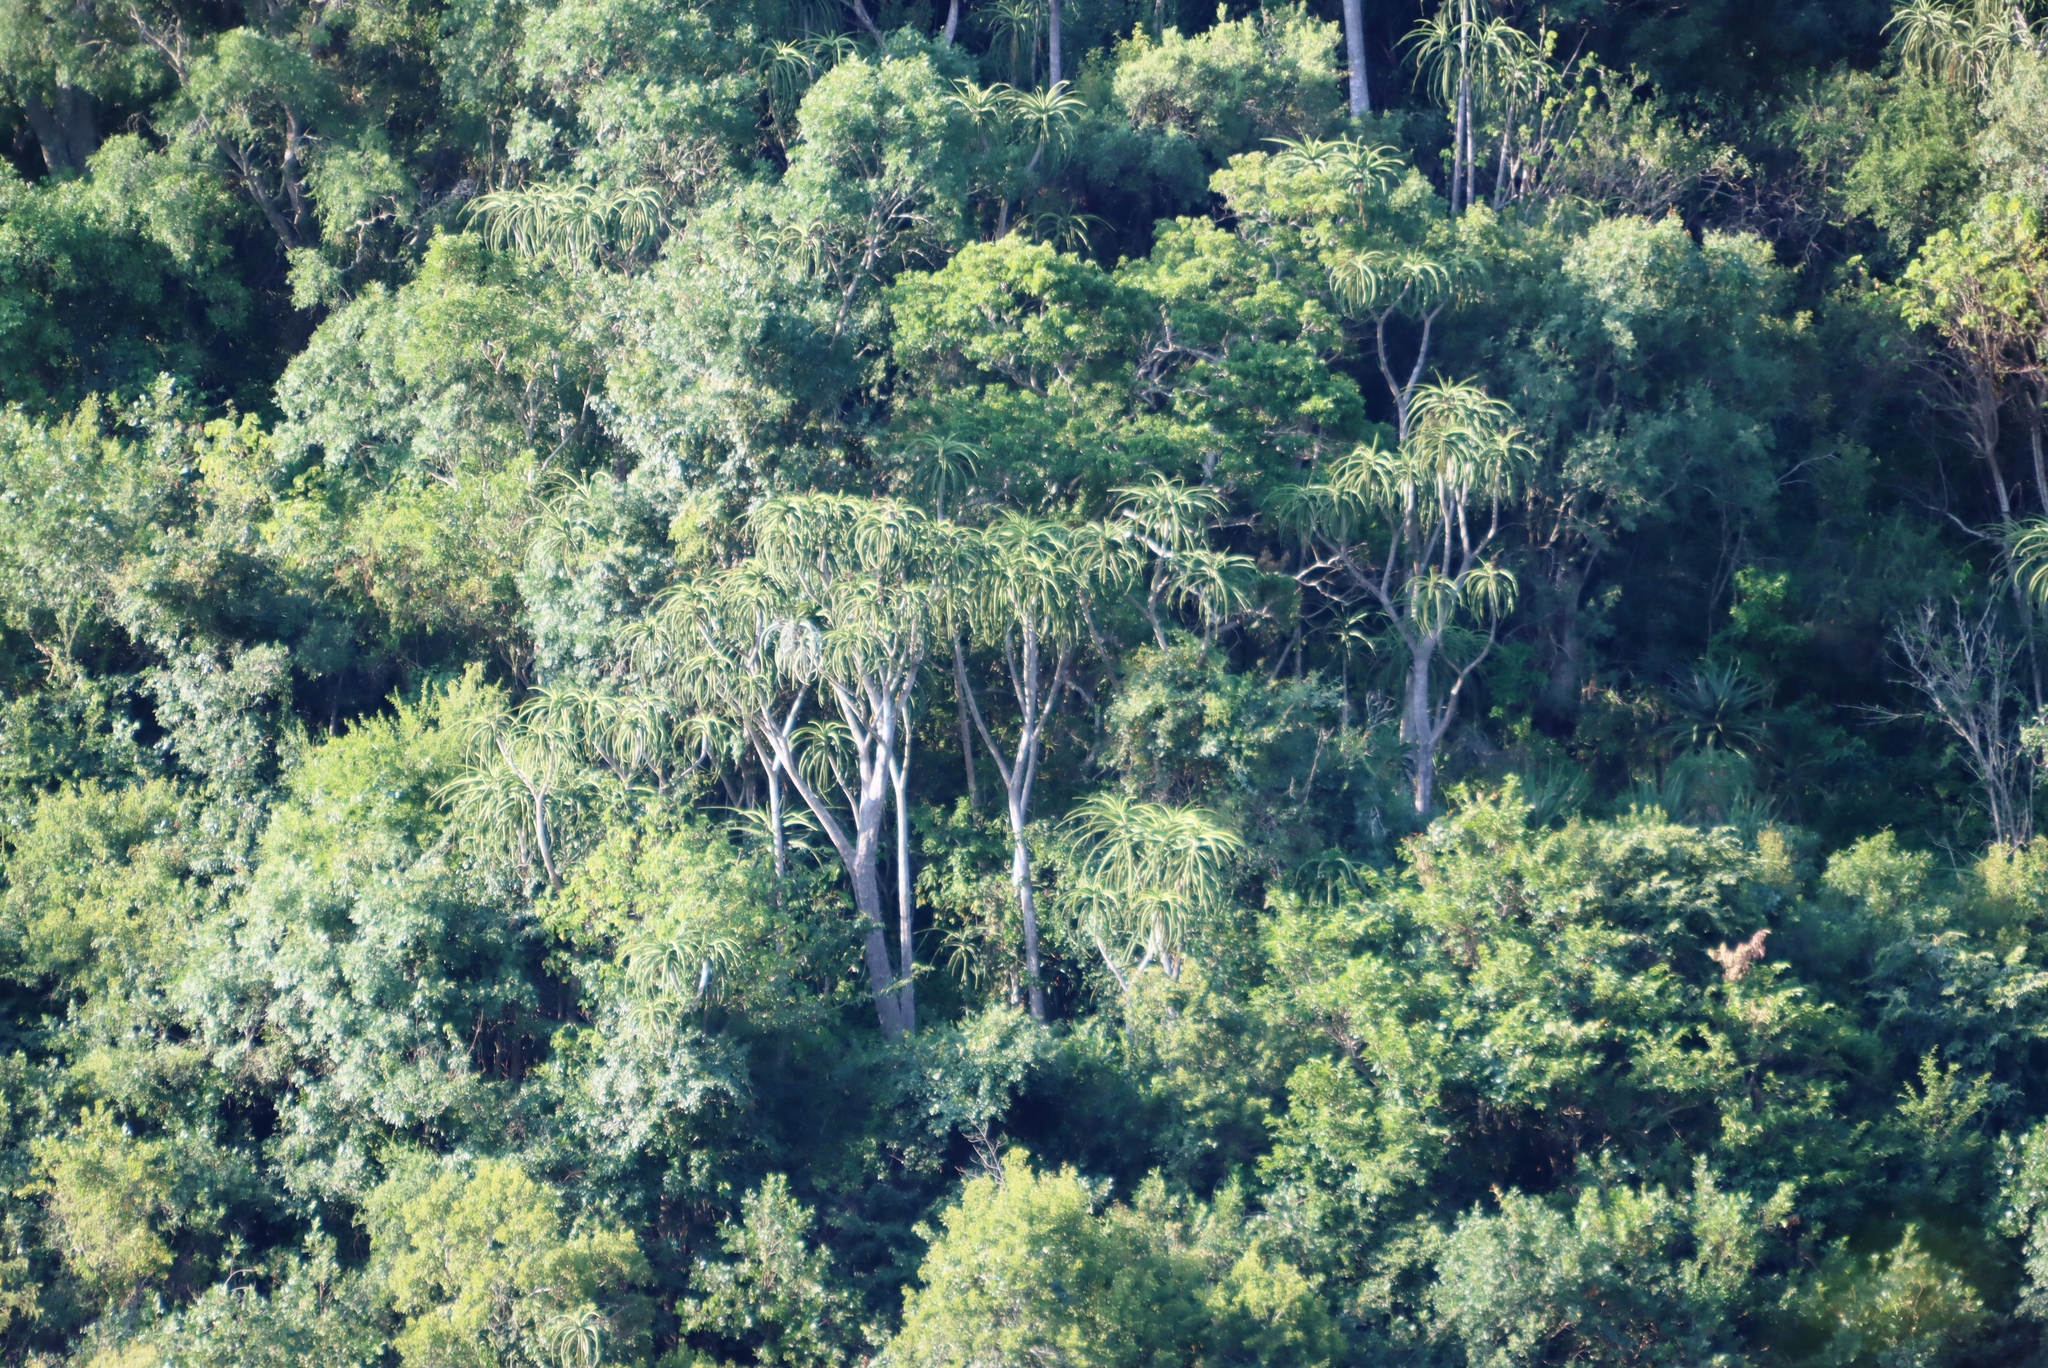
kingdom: Plantae
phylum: Tracheophyta
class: Liliopsida
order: Asparagales
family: Asphodelaceae
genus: Aloidendron
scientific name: Aloidendron barberae
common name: Tree aloe
